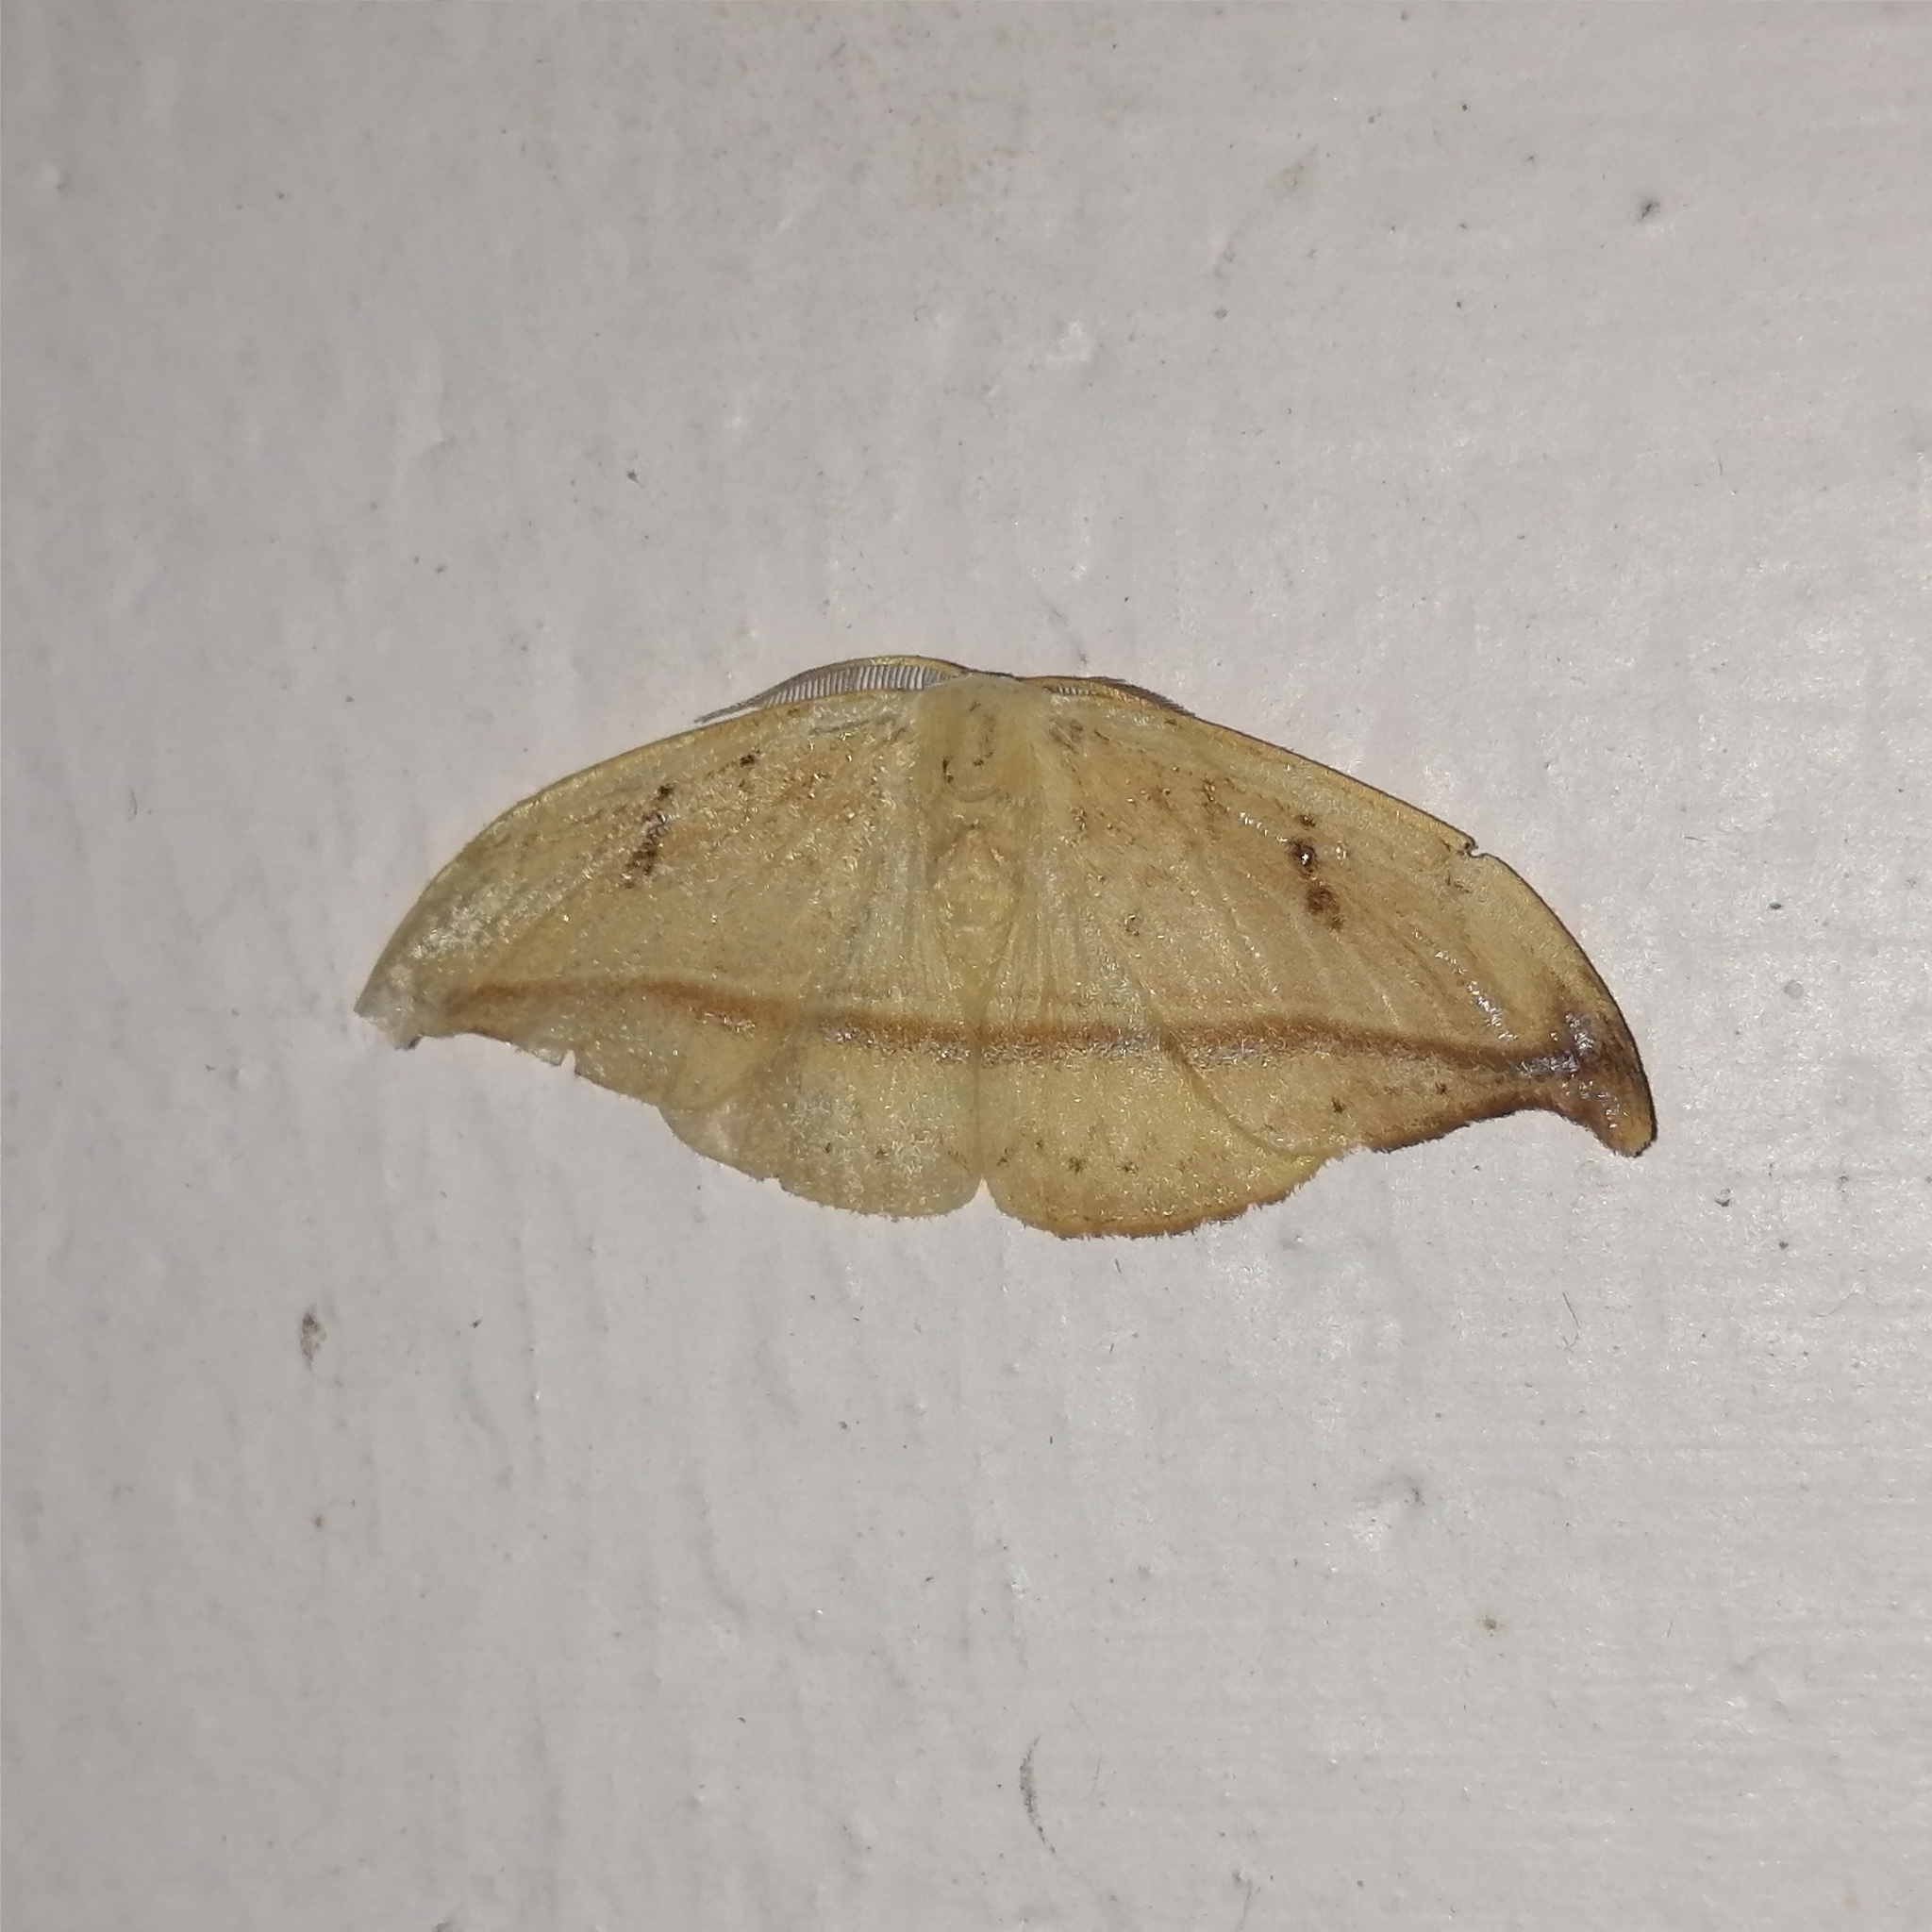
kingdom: Animalia
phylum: Arthropoda
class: Insecta
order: Lepidoptera
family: Drepanidae
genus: Callidrepana
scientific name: Callidrepana patrana
